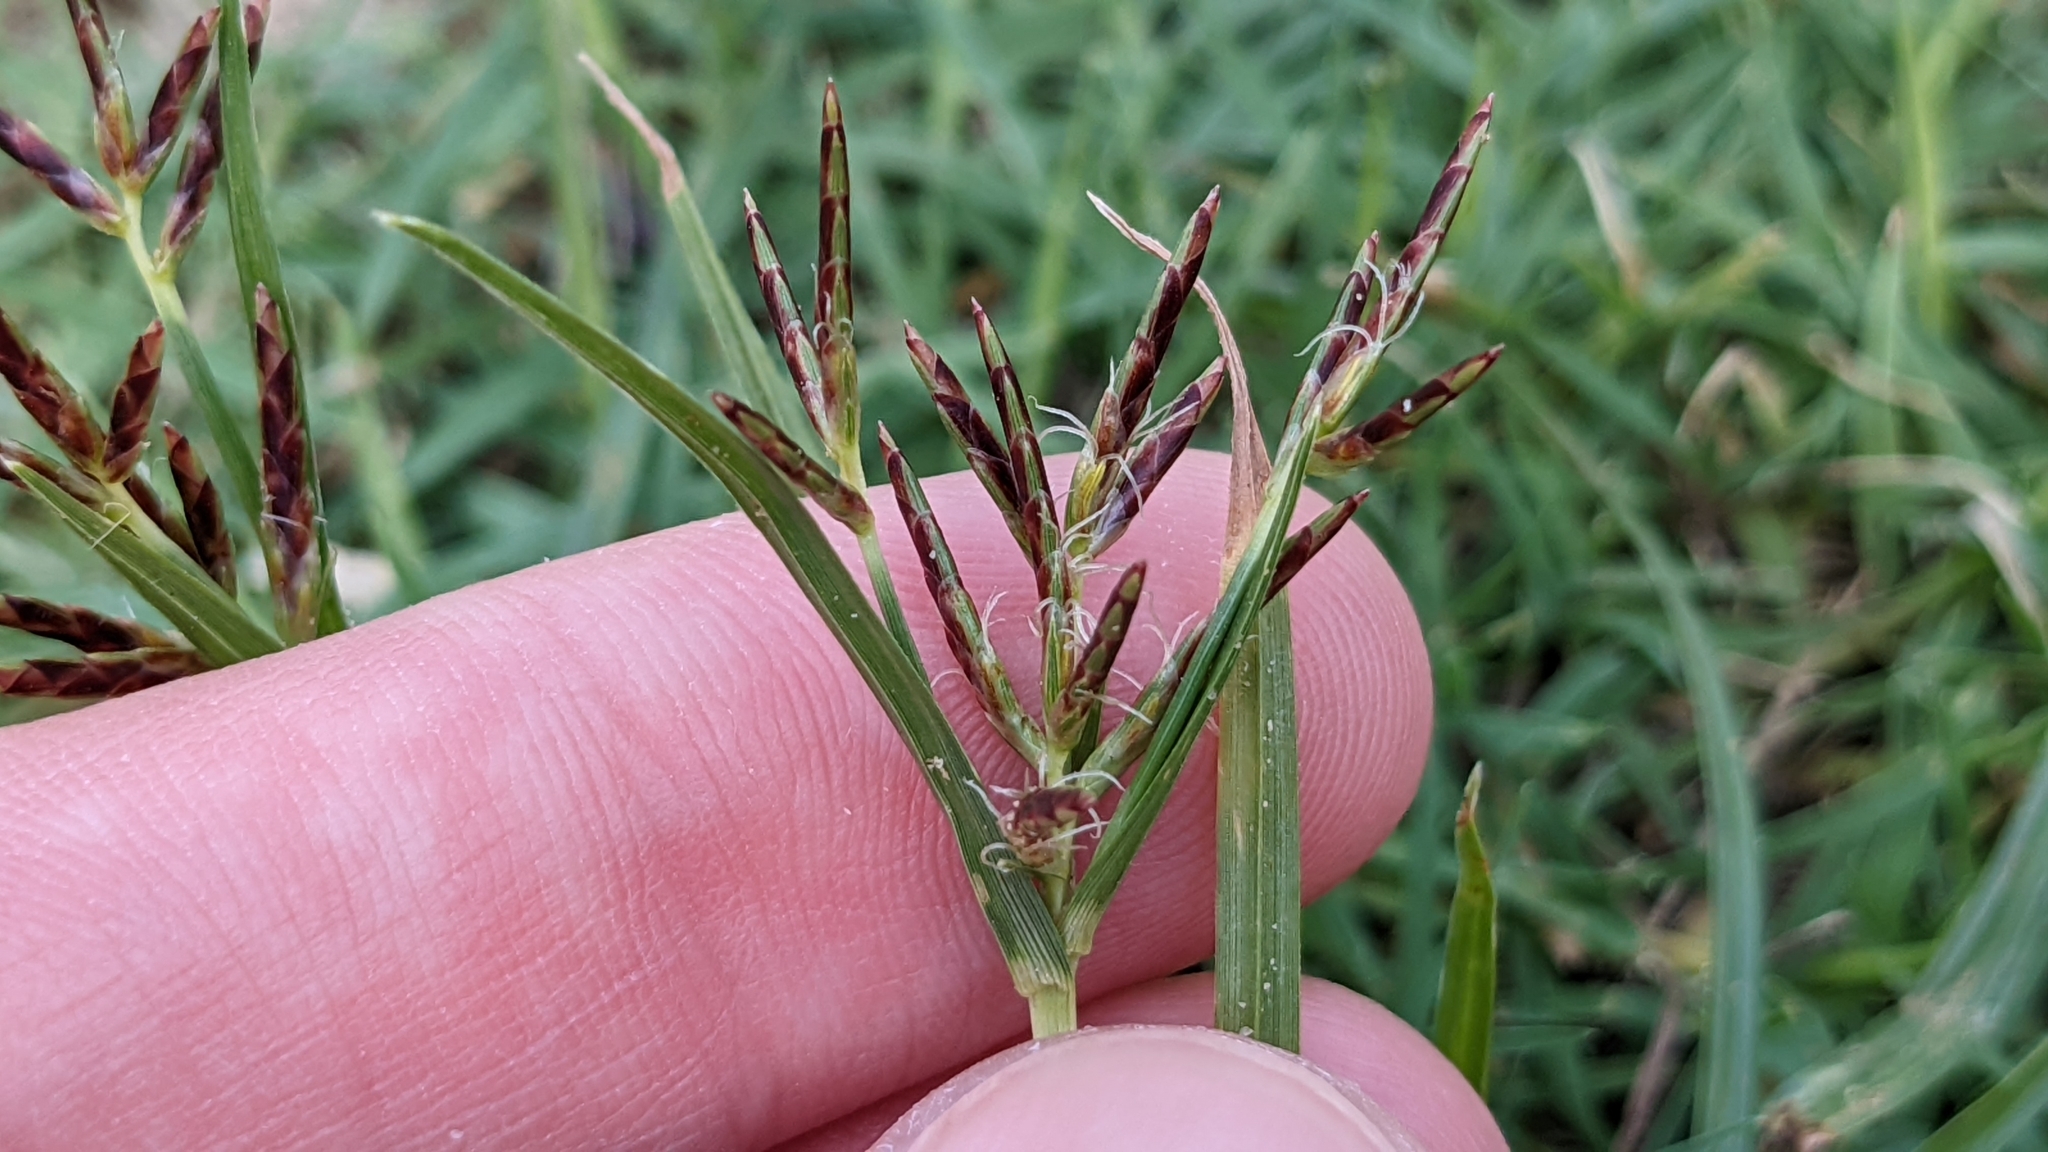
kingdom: Plantae
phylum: Tracheophyta
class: Liliopsida
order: Poales
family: Cyperaceae
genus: Cyperus
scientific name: Cyperus rotundus
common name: Nutgrass
